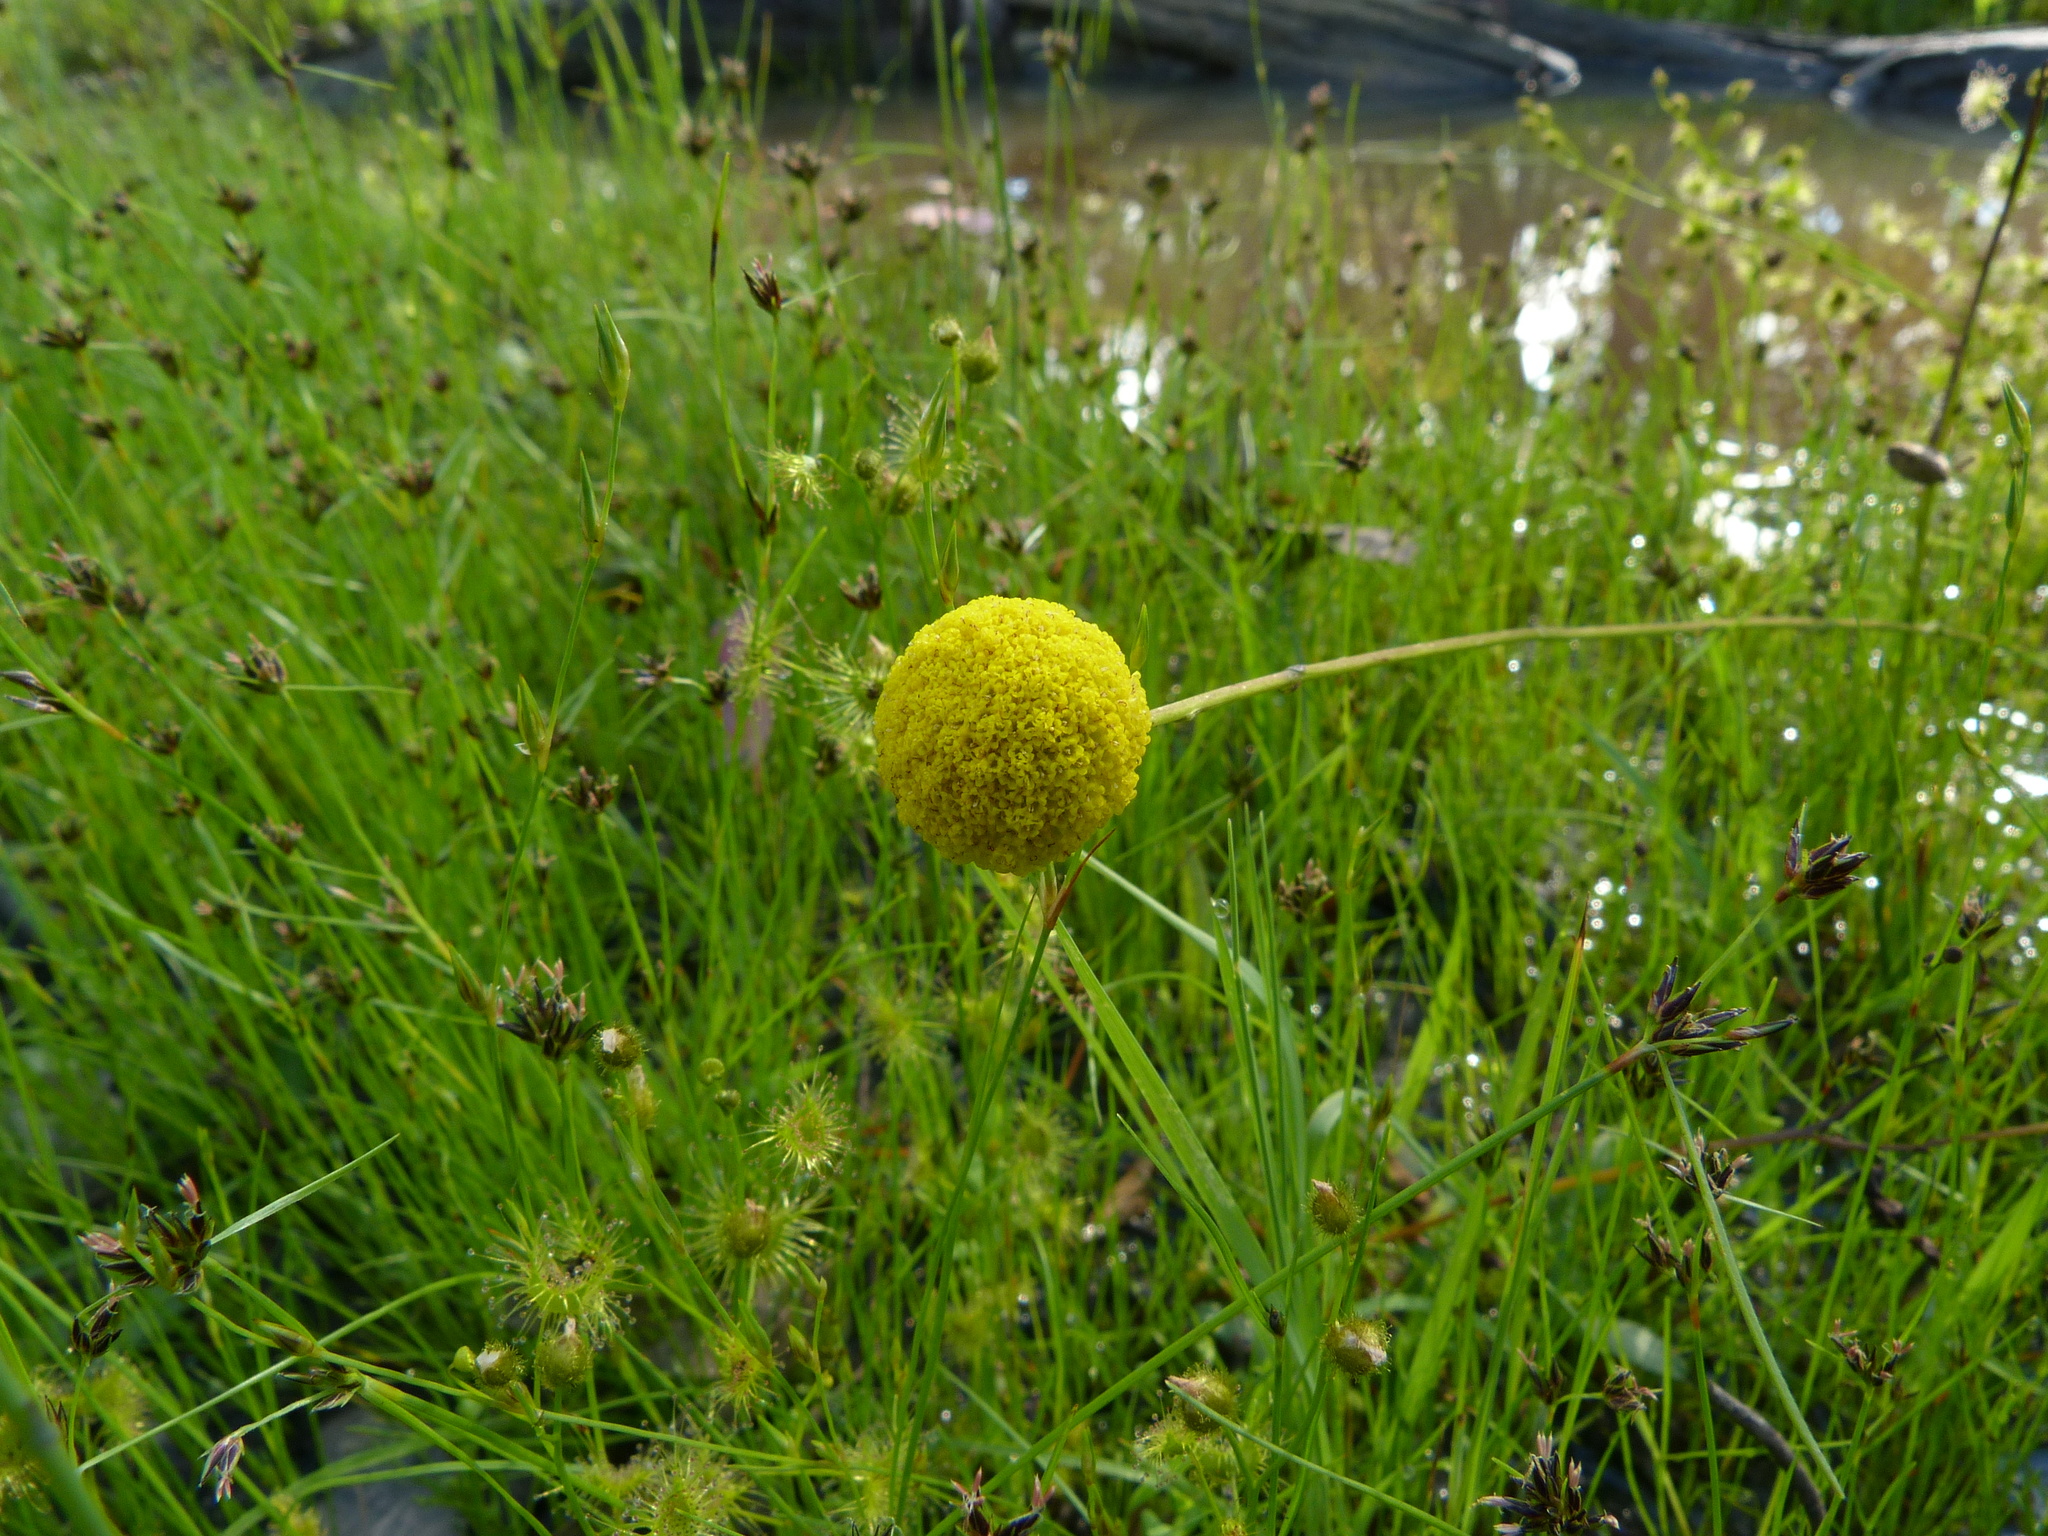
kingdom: Plantae
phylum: Tracheophyta
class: Magnoliopsida
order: Asterales
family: Asteraceae
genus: Craspedia
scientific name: Craspedia variabilis
